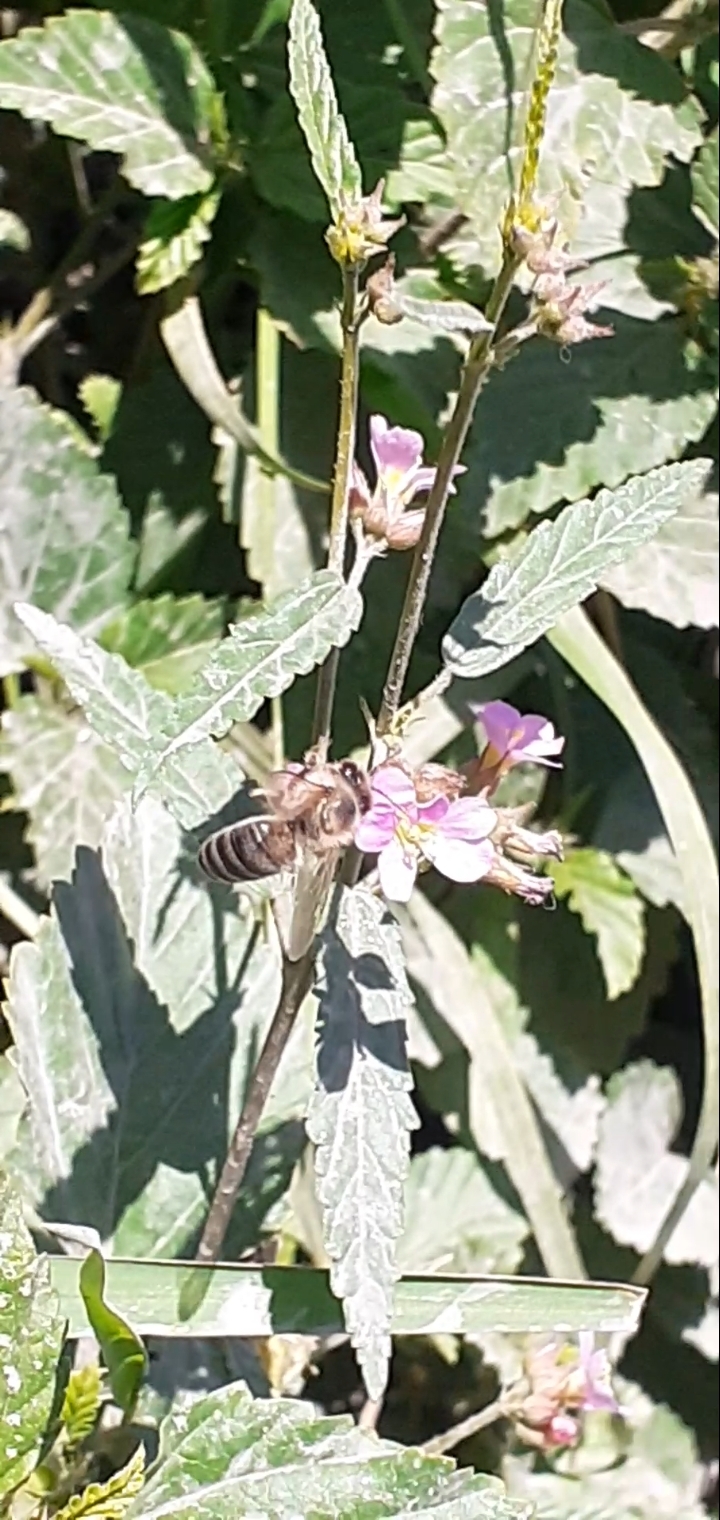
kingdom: Animalia
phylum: Arthropoda
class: Insecta
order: Hymenoptera
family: Apidae
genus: Apis
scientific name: Apis mellifera
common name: Honey bee
